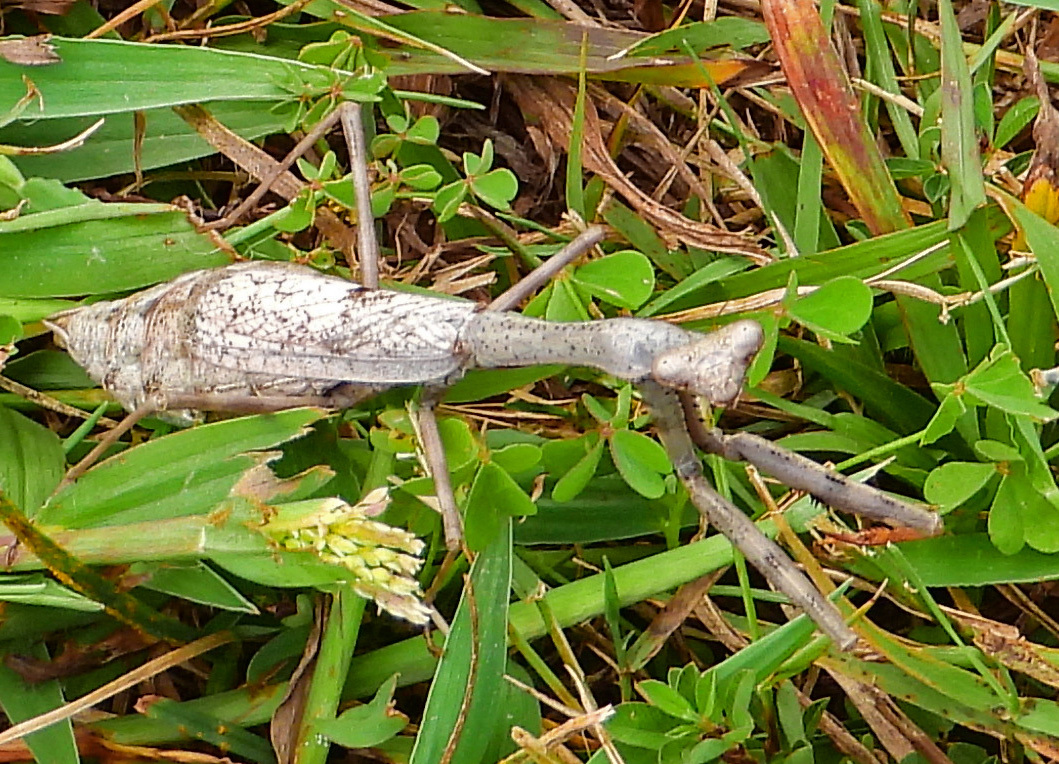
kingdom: Animalia
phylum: Arthropoda
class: Insecta
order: Mantodea
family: Mantidae
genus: Stagmomantis
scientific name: Stagmomantis carolina
